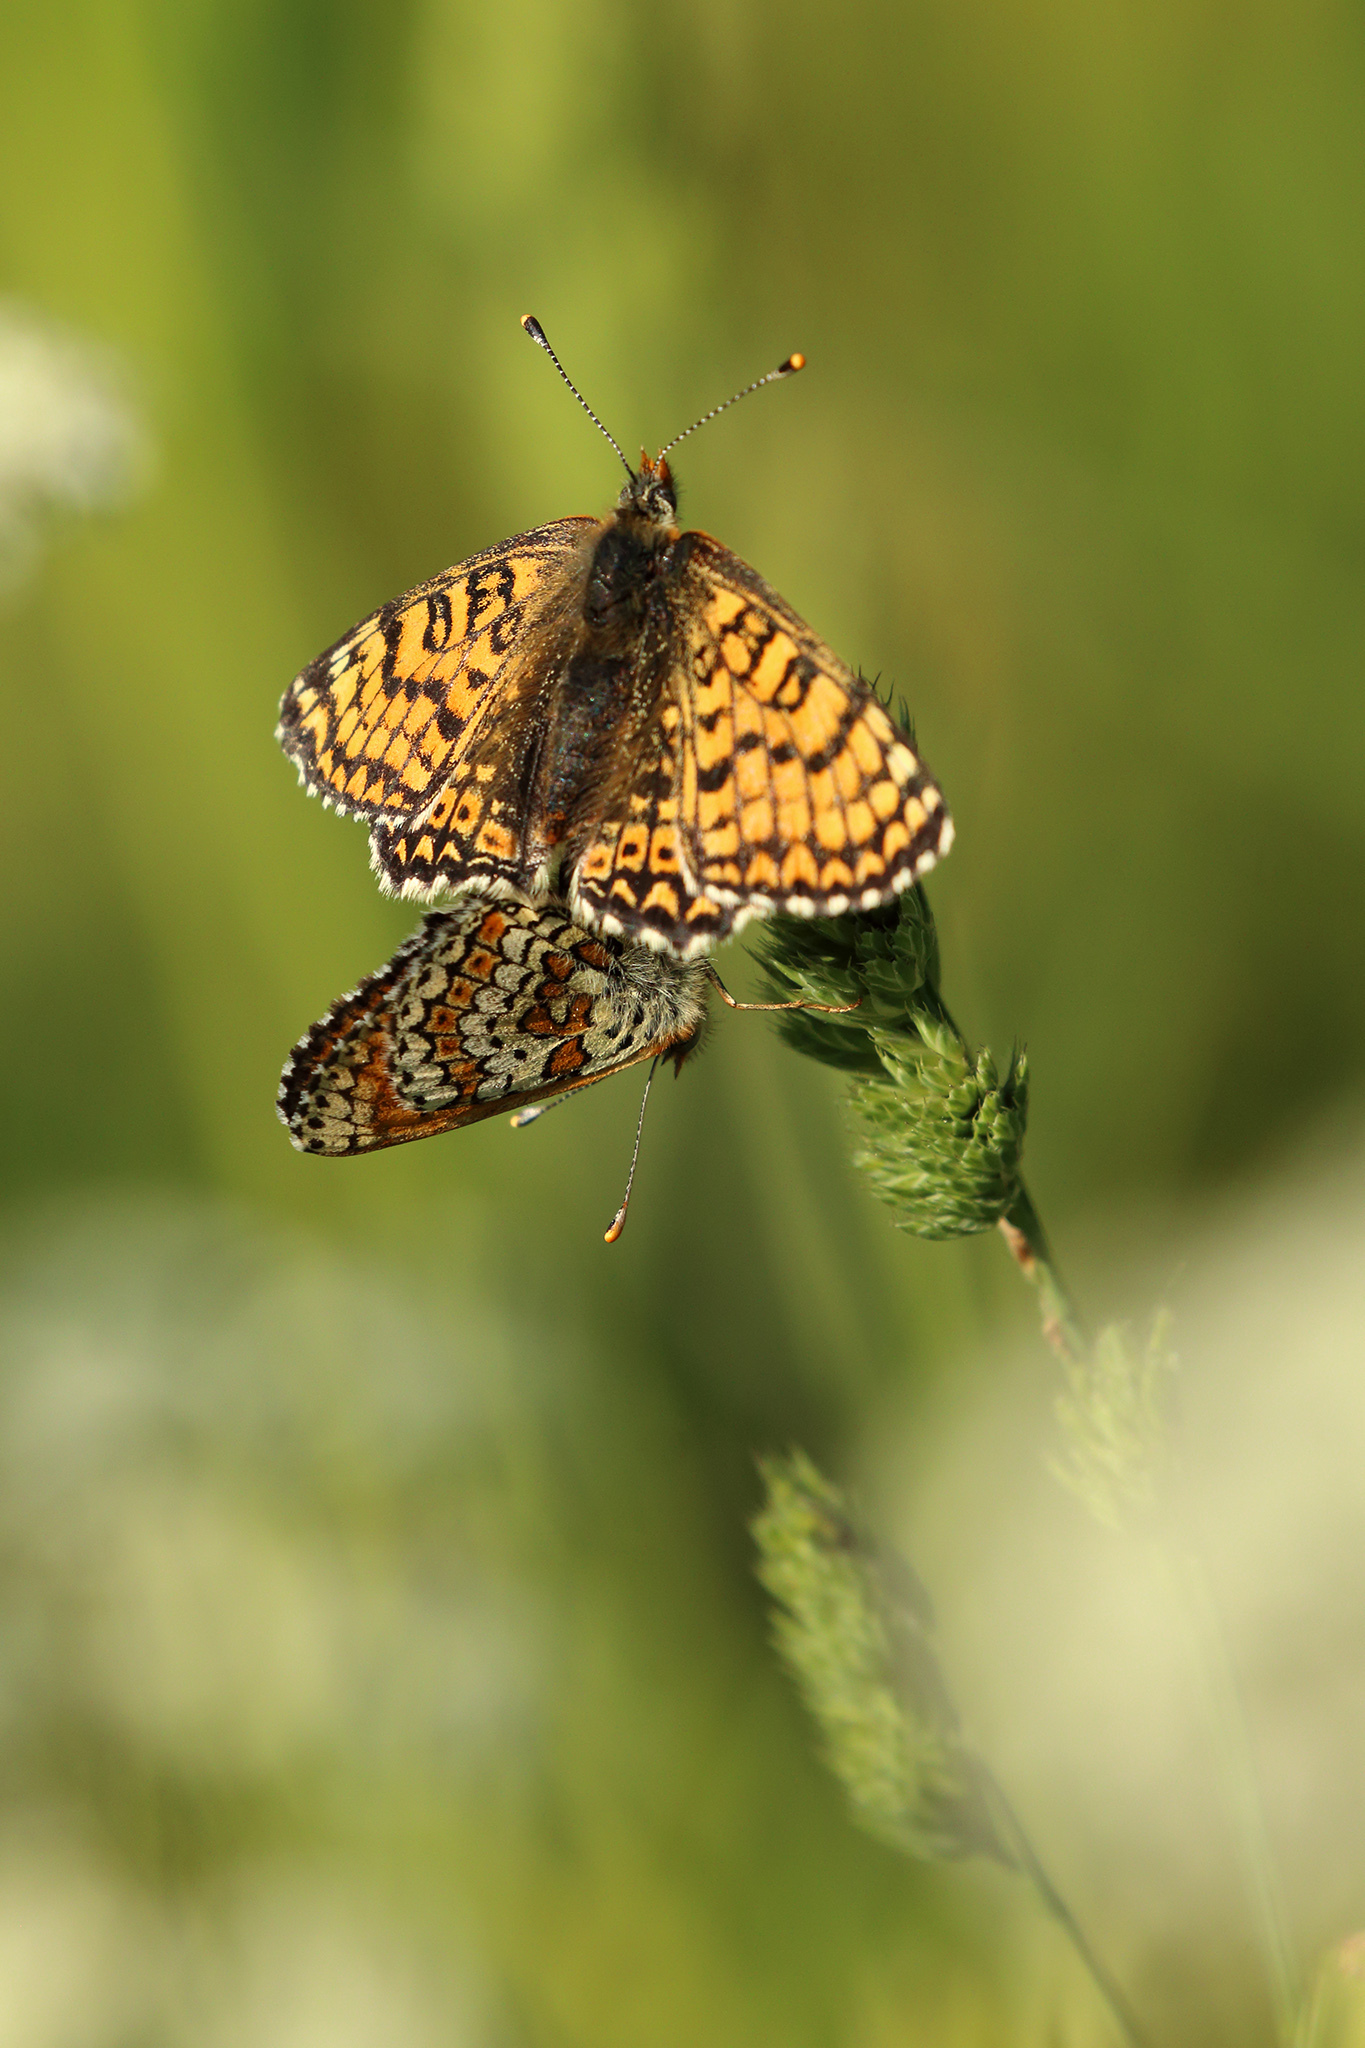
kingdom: Animalia
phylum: Arthropoda
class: Insecta
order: Lepidoptera
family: Nymphalidae
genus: Melitaea
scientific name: Melitaea cinxia
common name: Glanville fritillary
